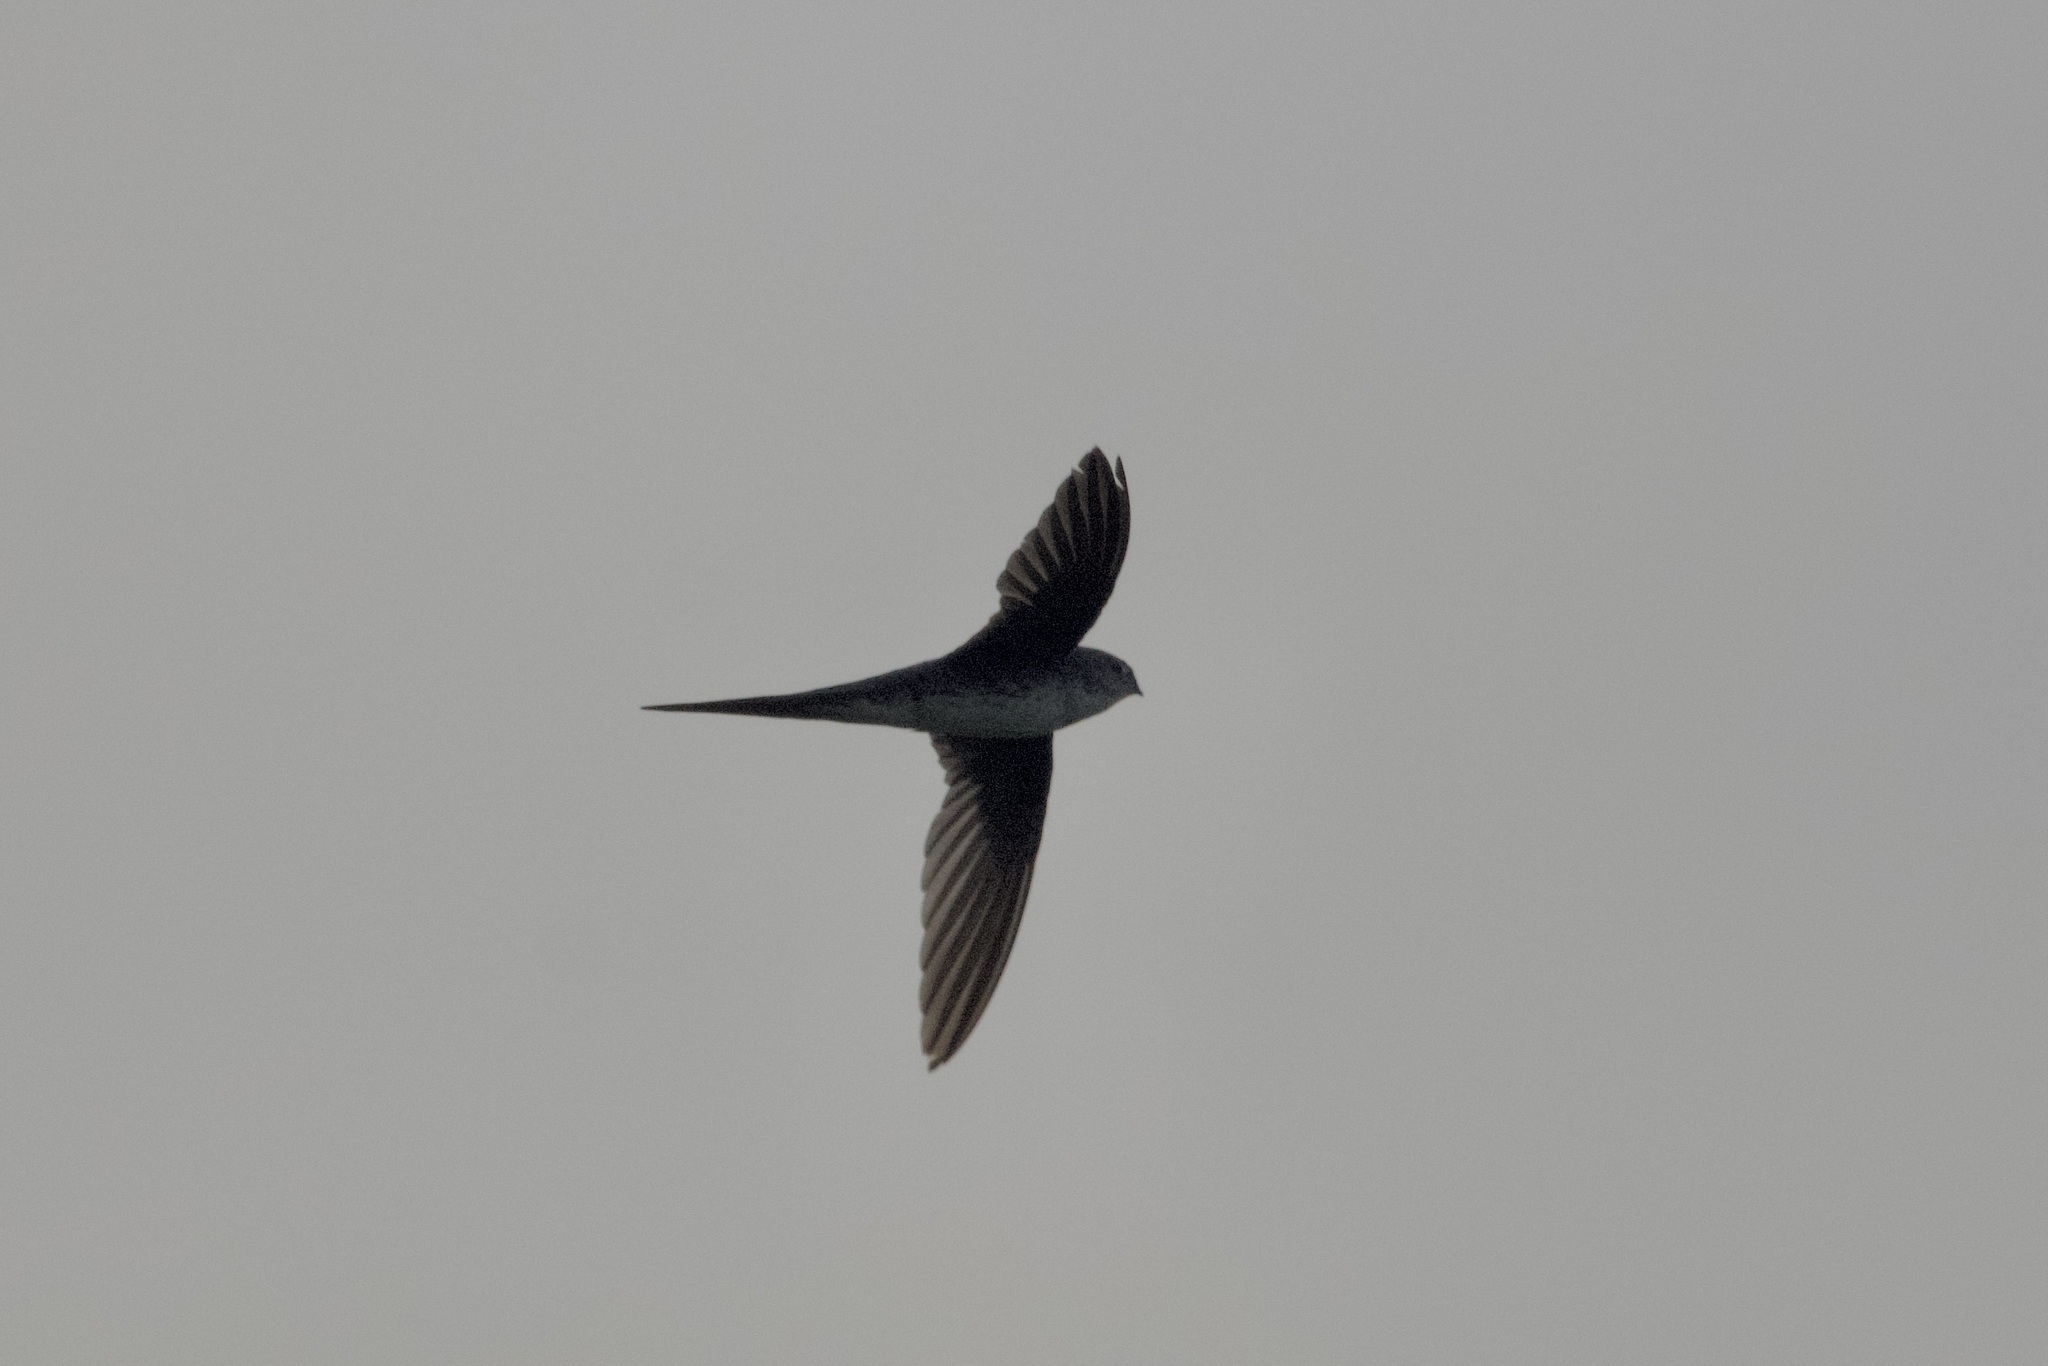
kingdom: Animalia
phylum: Chordata
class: Aves
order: Apodiformes
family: Apodidae
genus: Tachornis
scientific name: Tachornis squamata
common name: Neotropical palm swift
